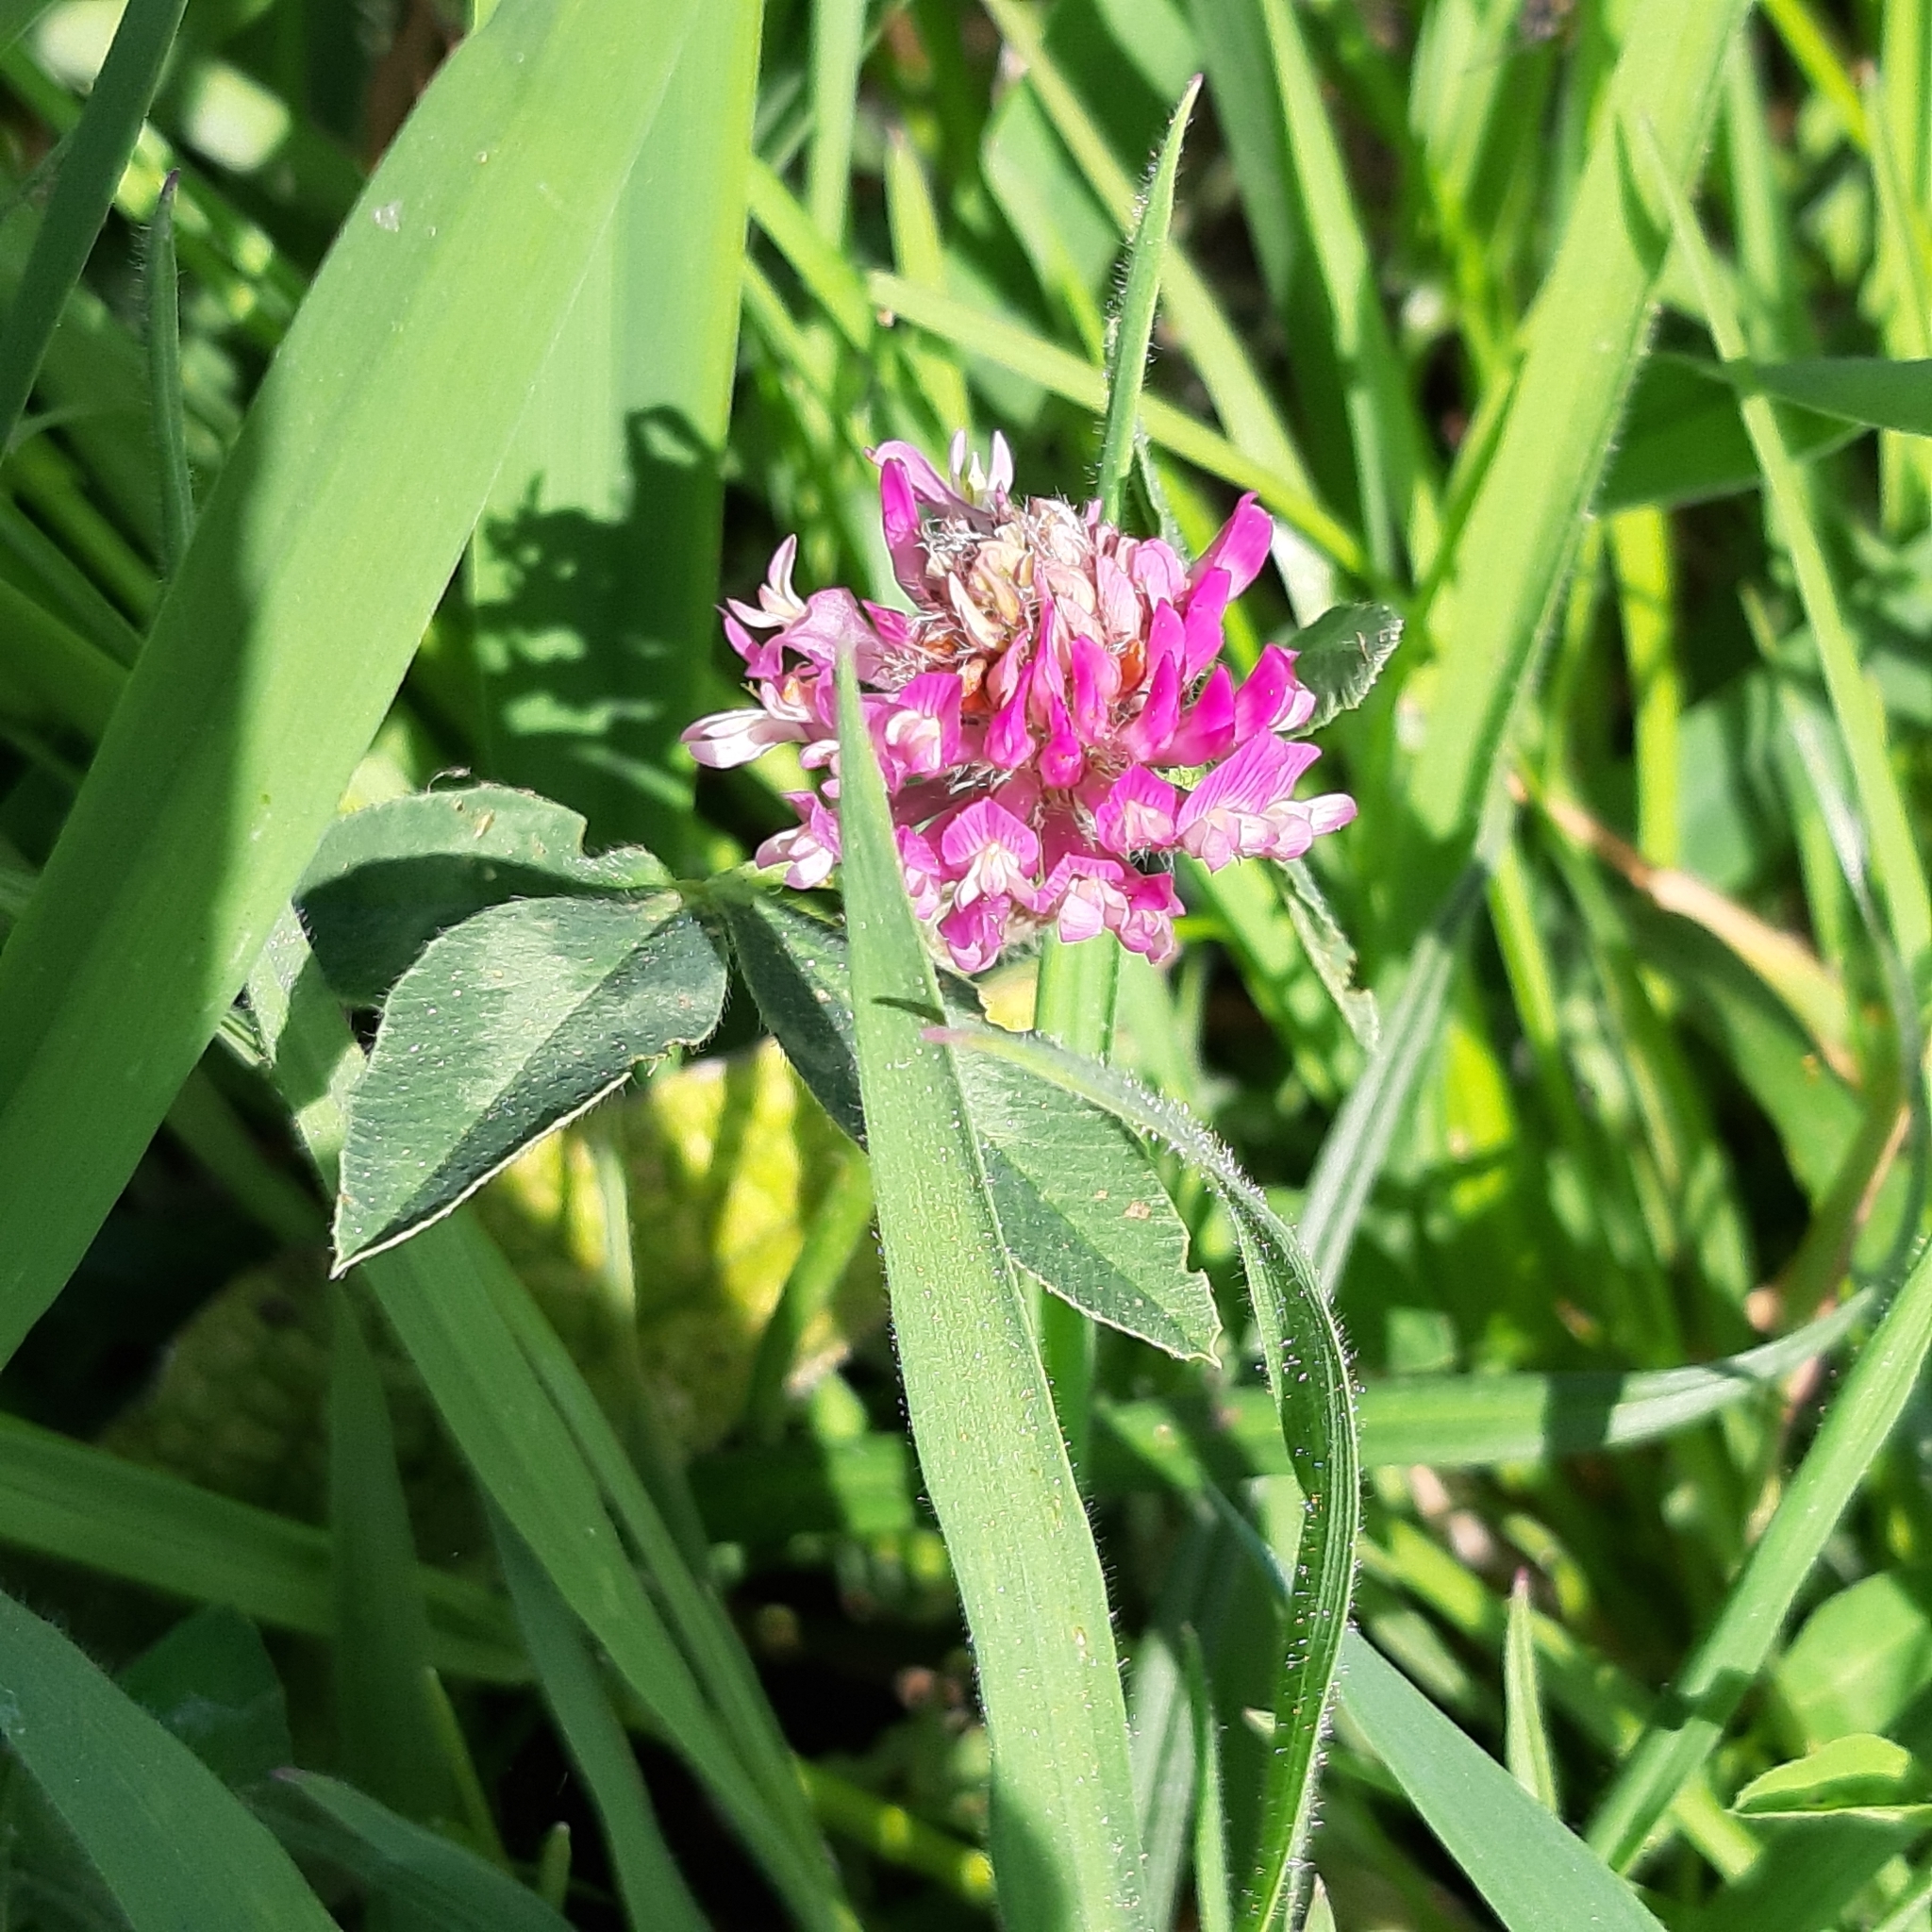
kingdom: Plantae
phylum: Tracheophyta
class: Magnoliopsida
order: Fabales
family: Fabaceae
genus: Trifolium
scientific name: Trifolium pratense
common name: Red clover
